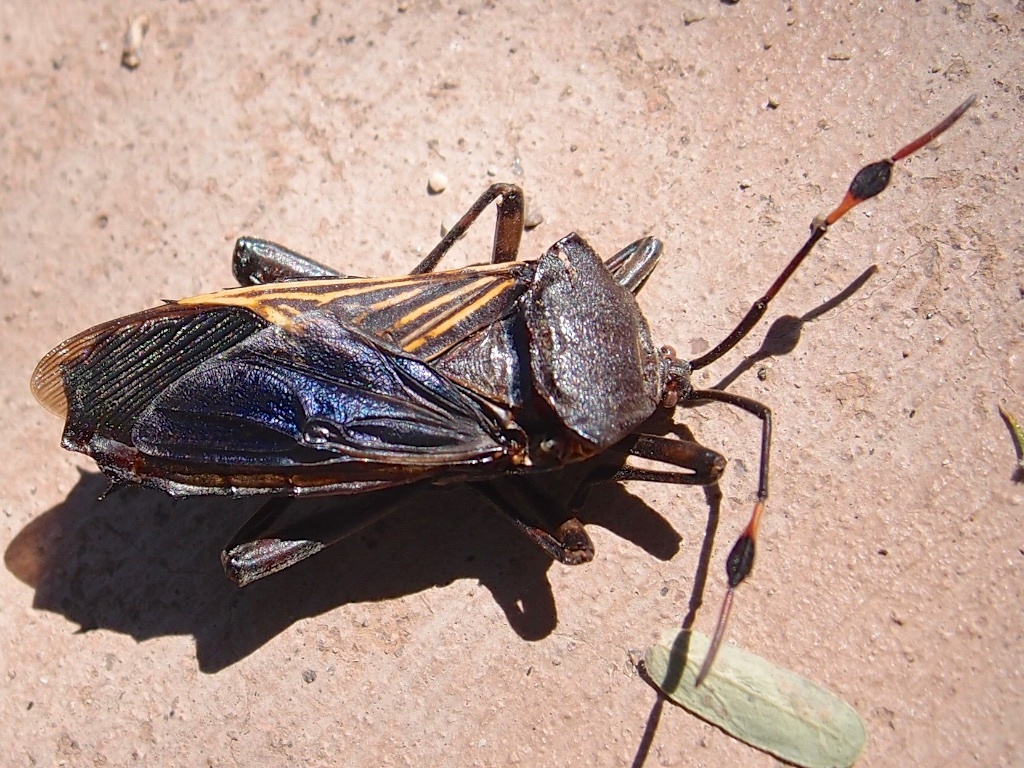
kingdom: Animalia
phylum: Arthropoda
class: Insecta
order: Hemiptera
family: Coreidae
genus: Thasus
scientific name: Thasus neocalifornicus
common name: Giant mesquite bug
